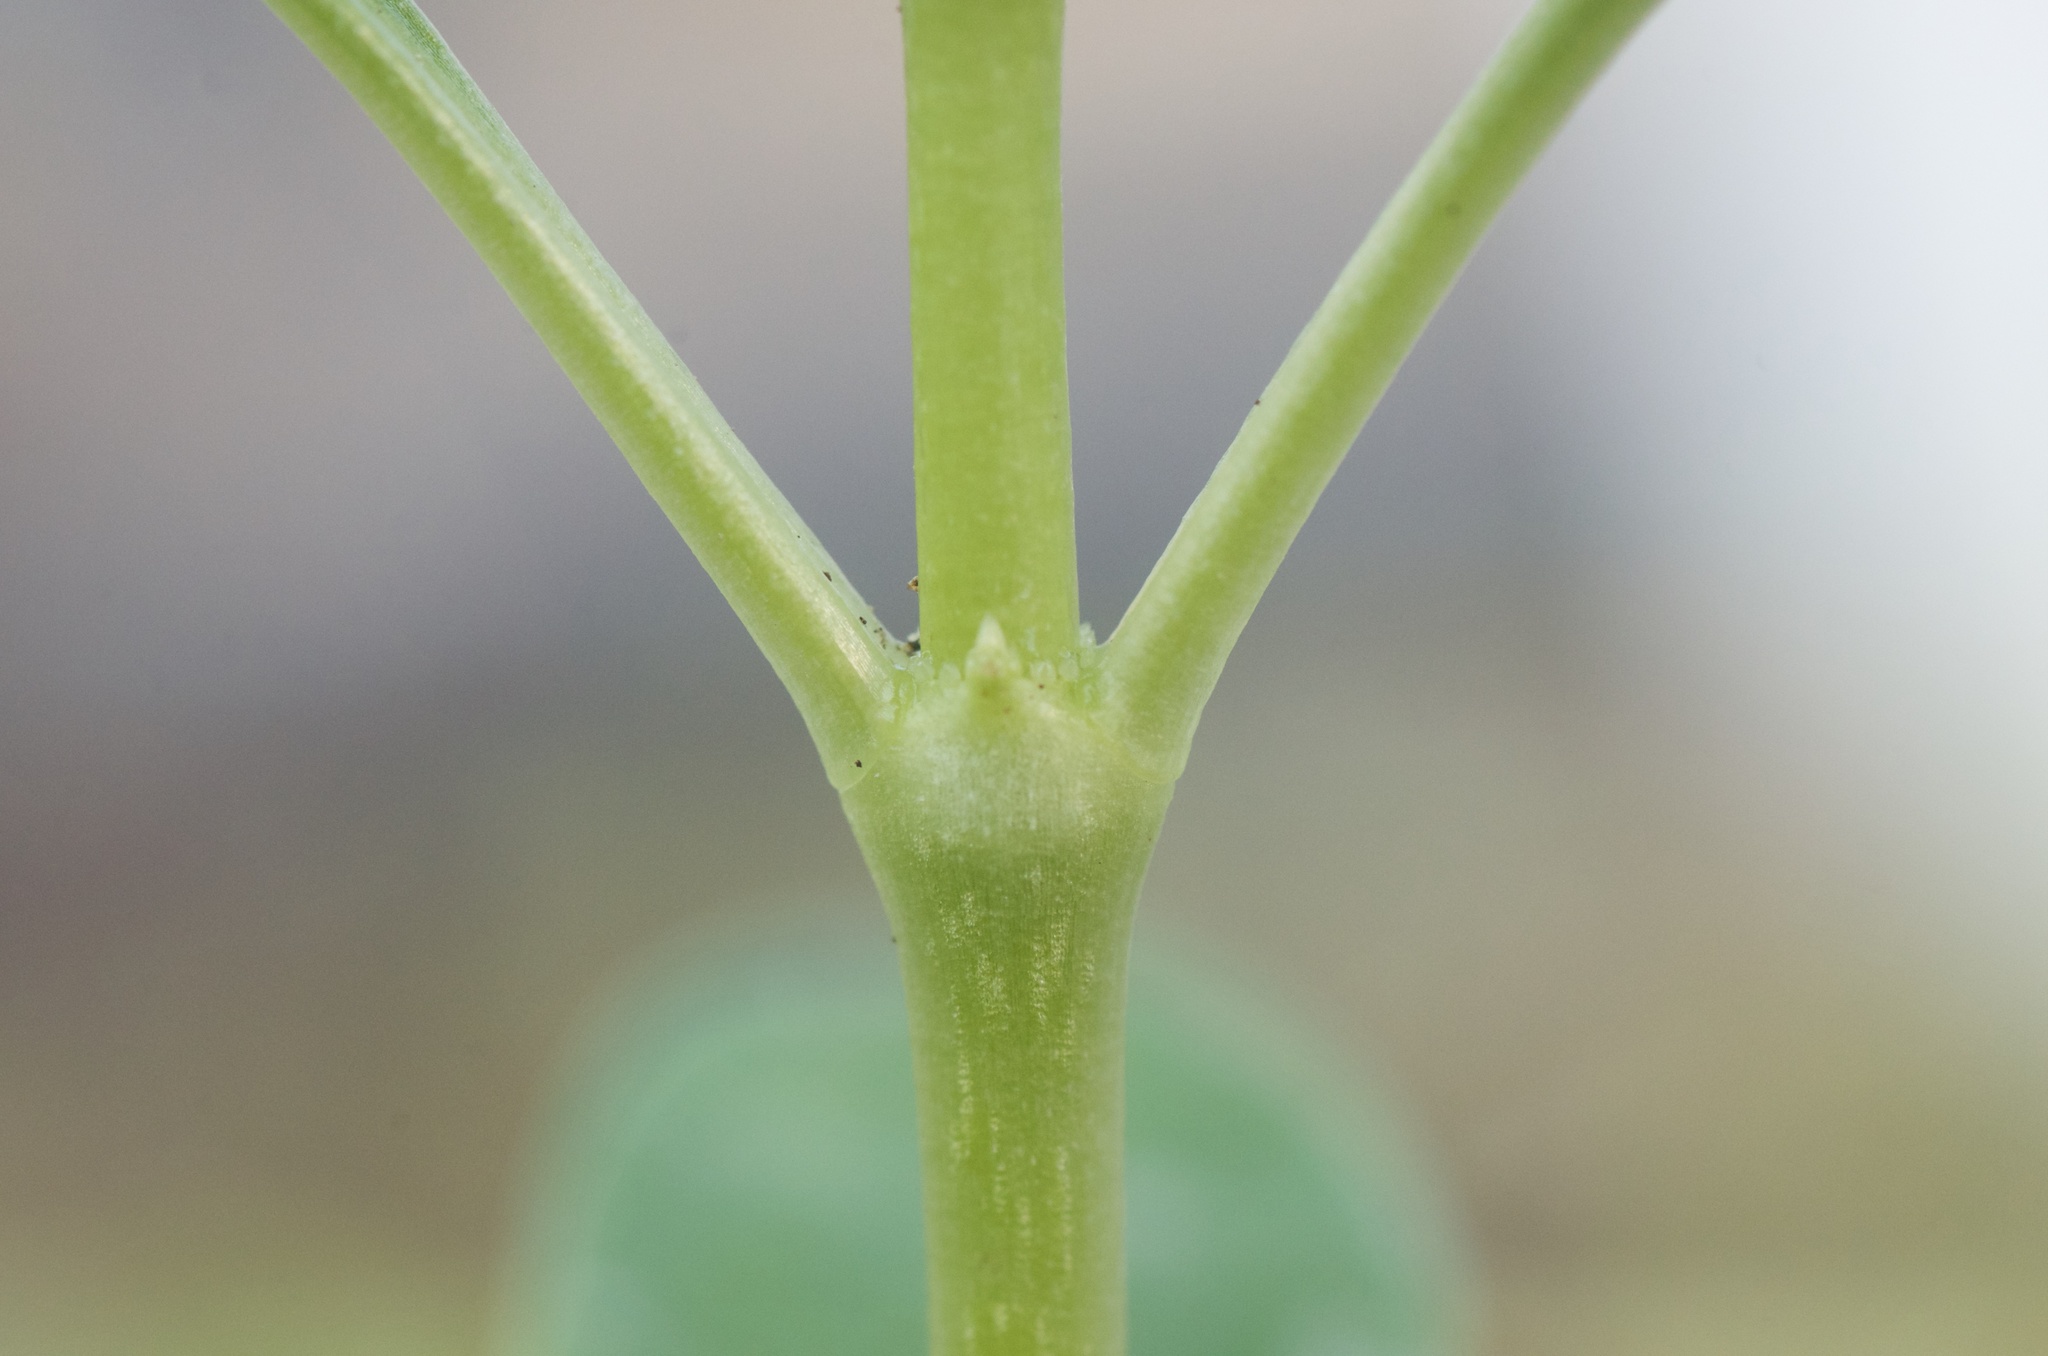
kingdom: Plantae
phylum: Tracheophyta
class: Magnoliopsida
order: Gentianales
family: Rubiaceae
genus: Coprosma
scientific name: Coprosma repens
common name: Tree bedstraw
